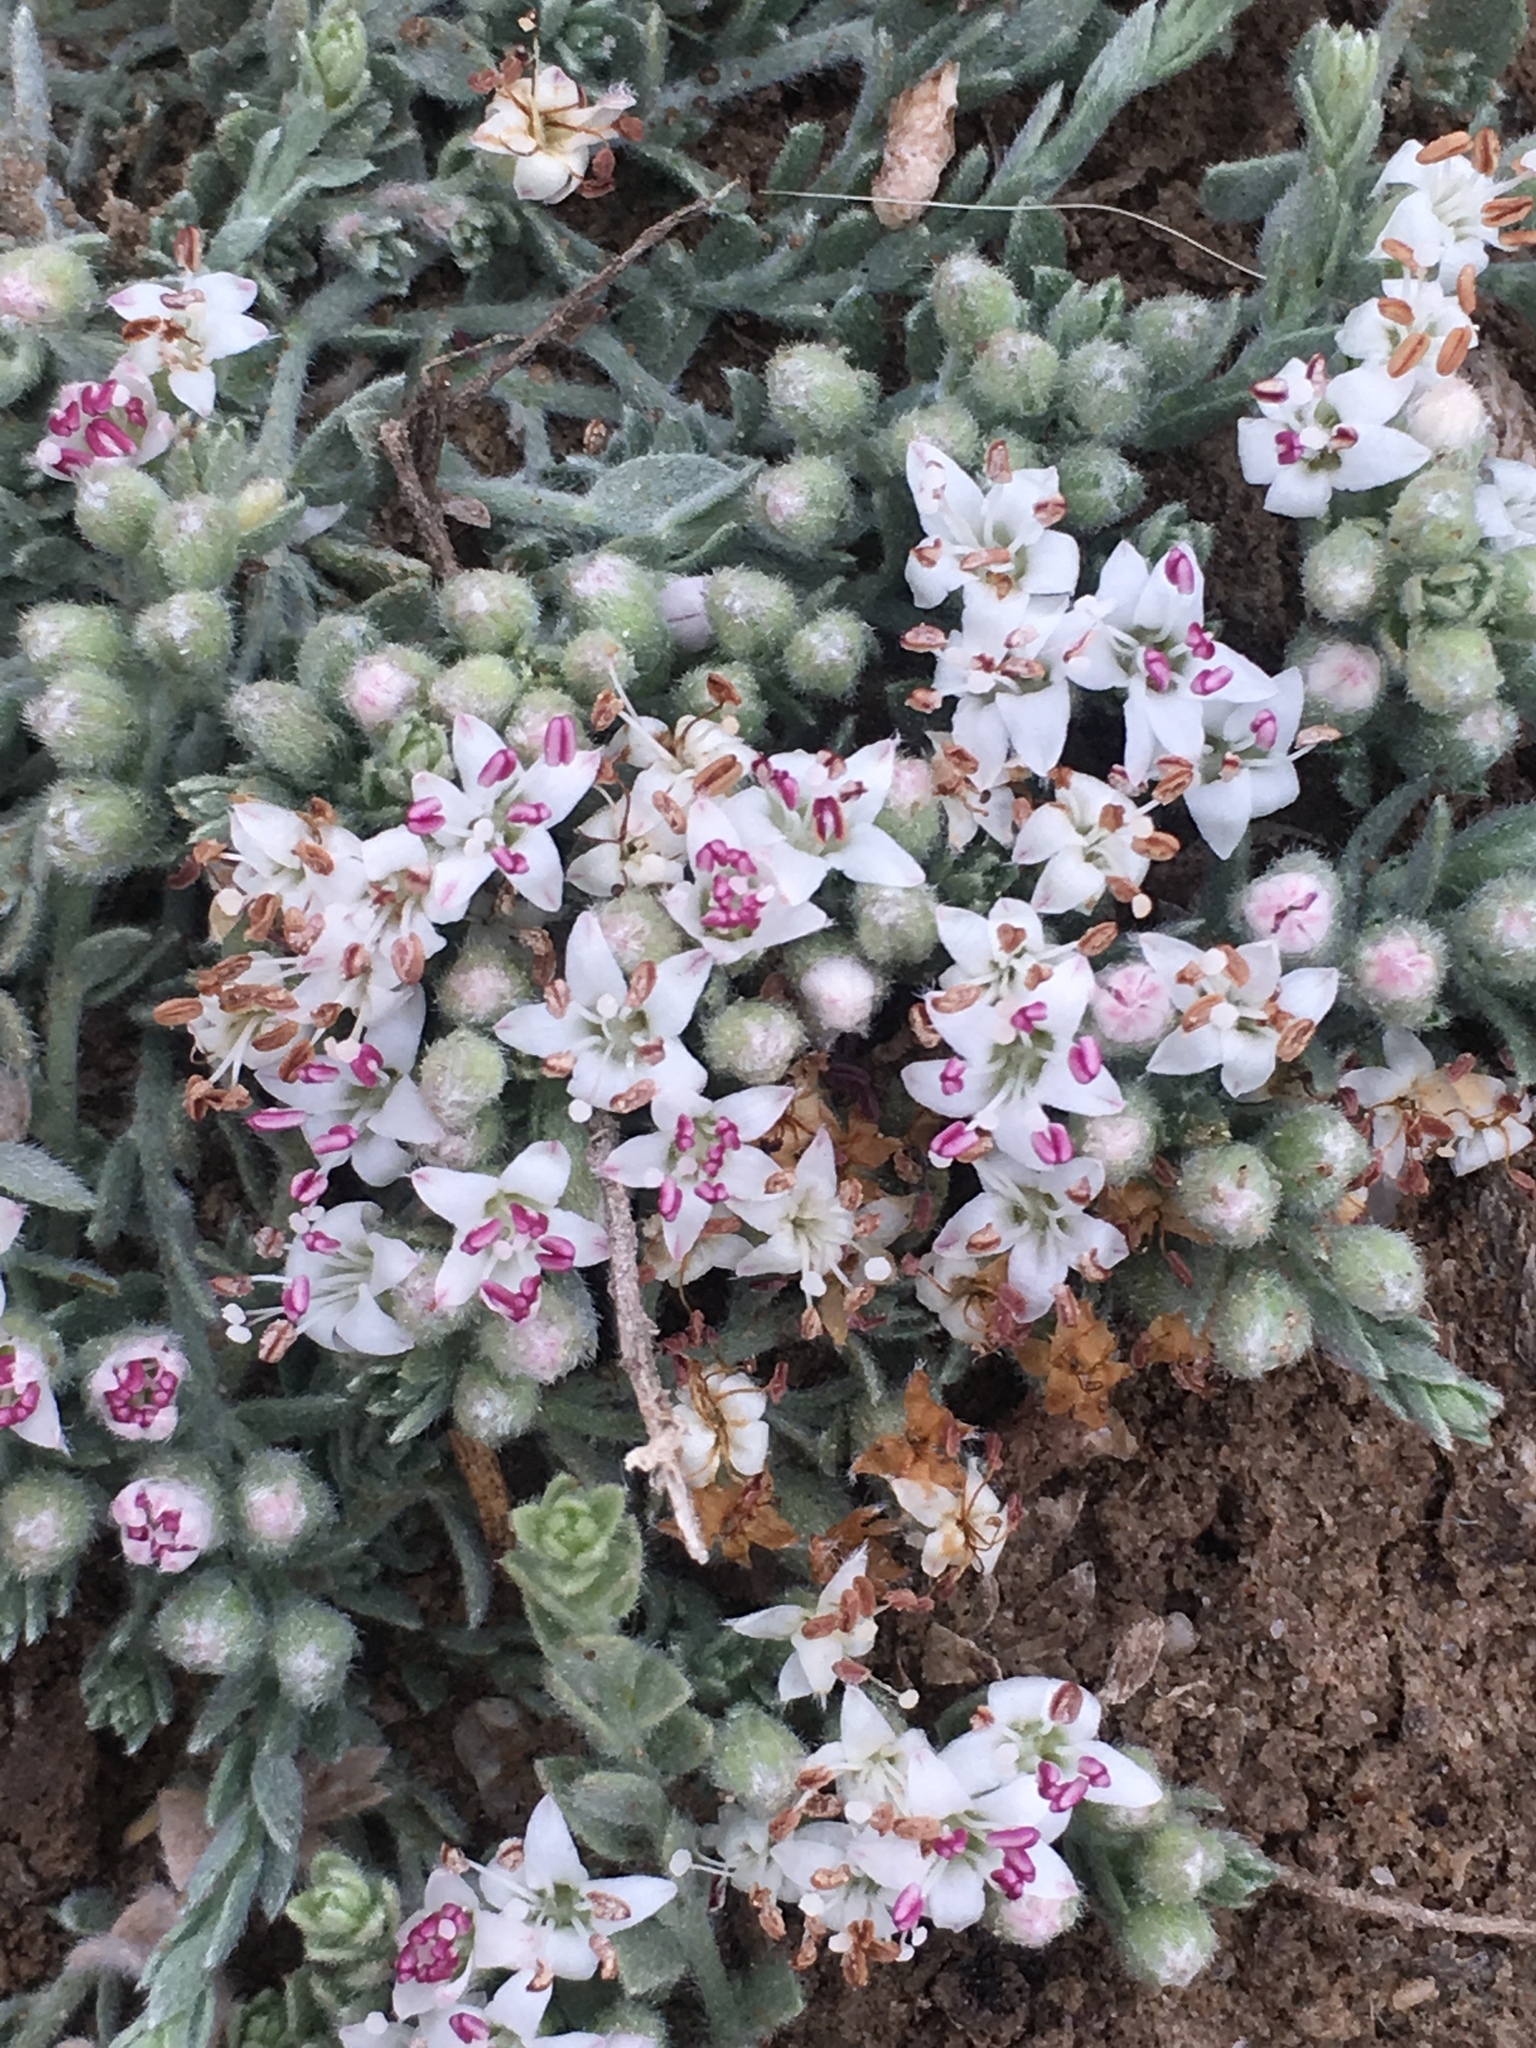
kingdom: Plantae
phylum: Tracheophyta
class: Magnoliopsida
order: Solanales
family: Convolvulaceae
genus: Cressa
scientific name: Cressa truxillensis
